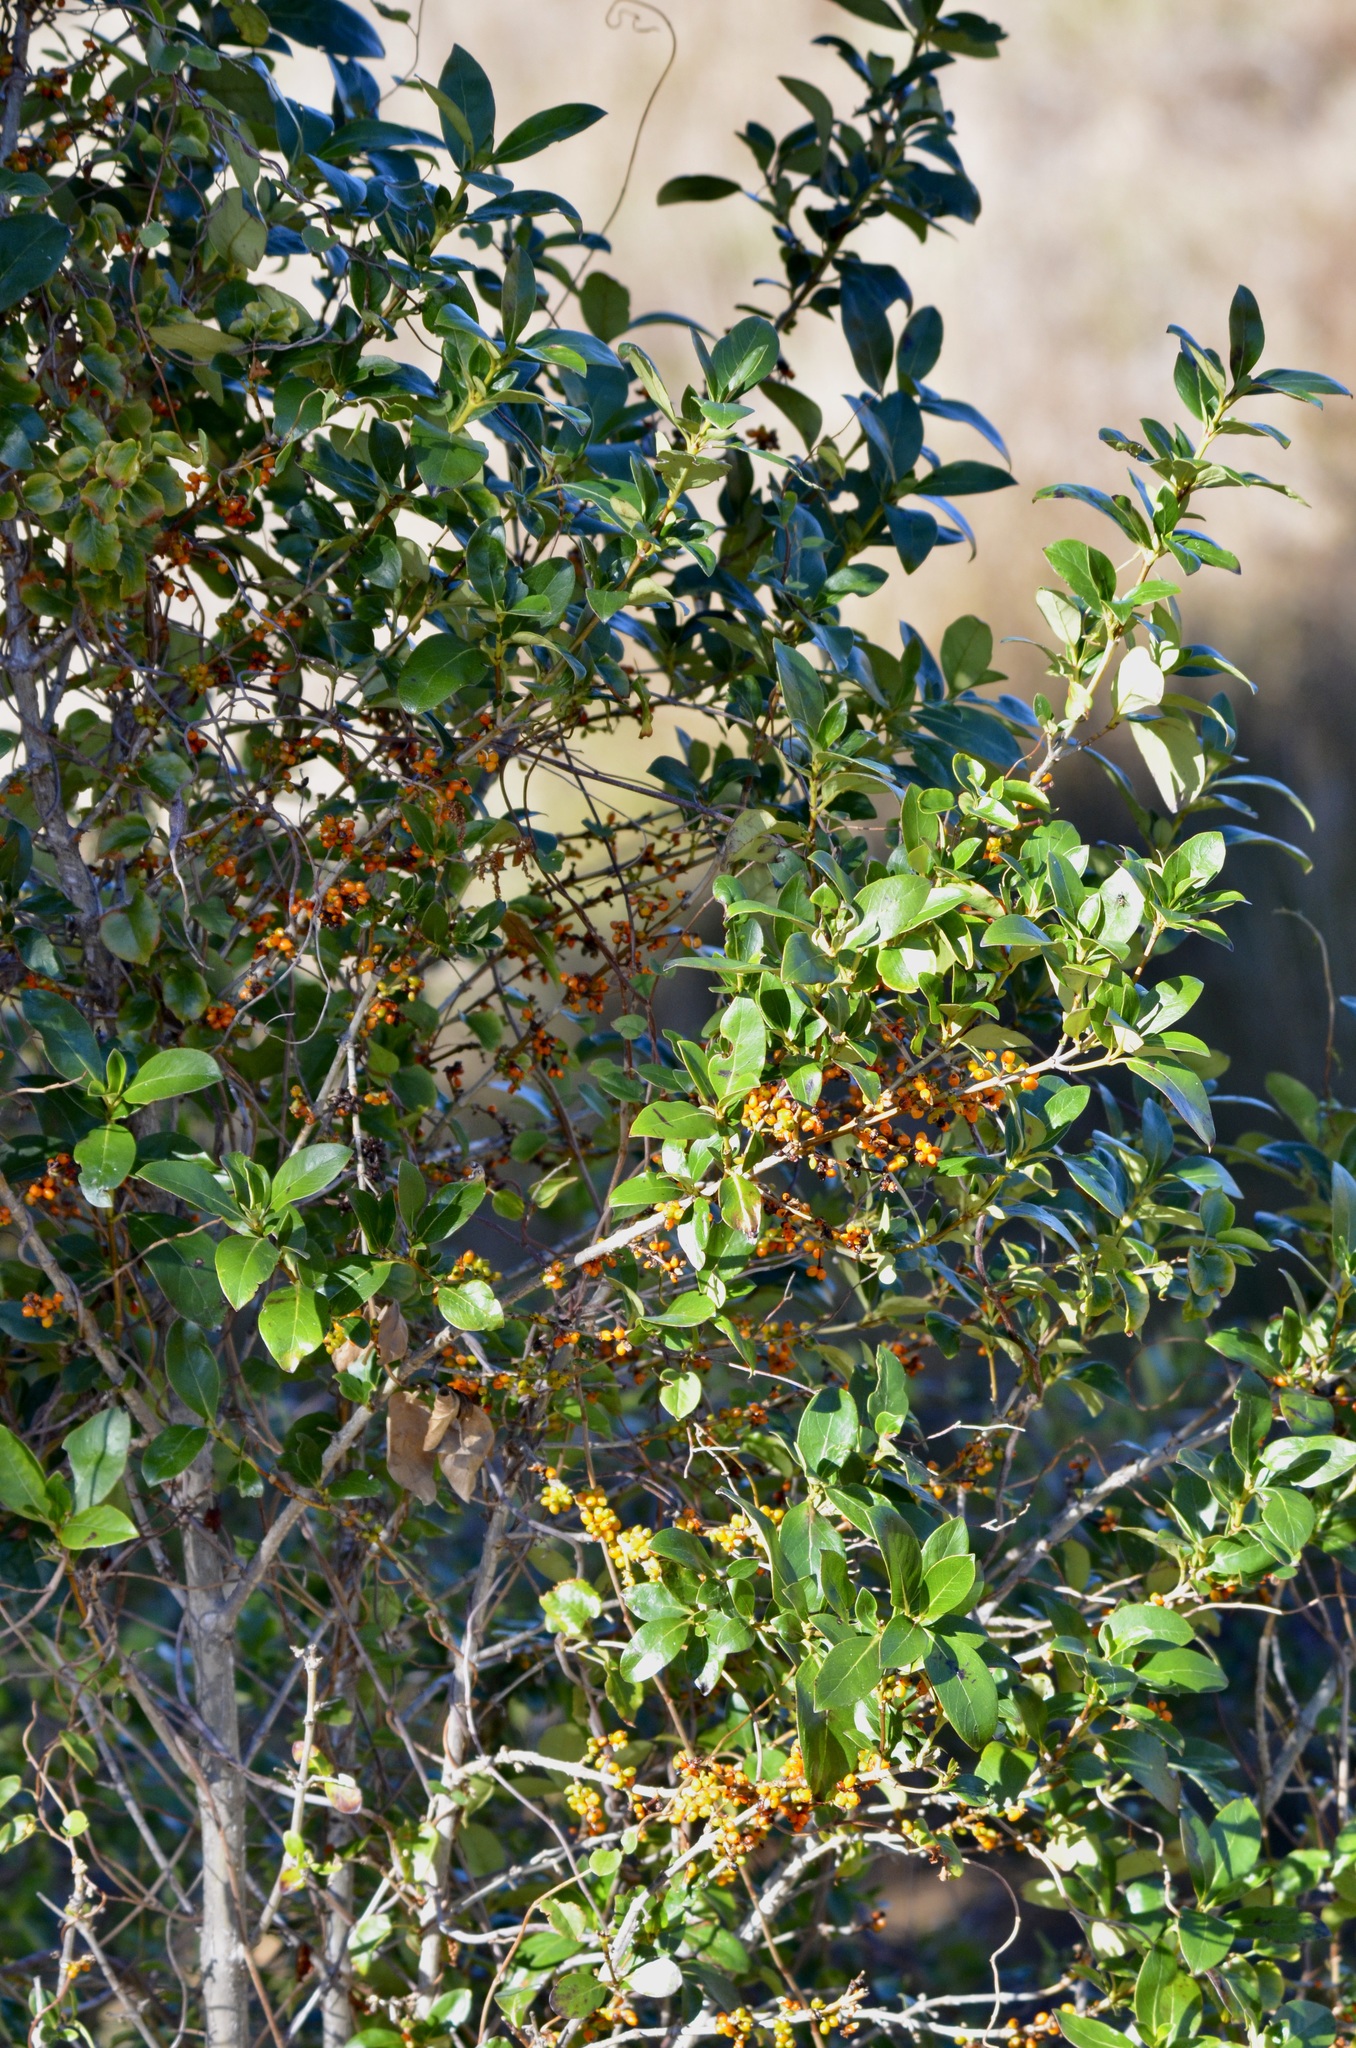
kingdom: Plantae
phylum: Tracheophyta
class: Magnoliopsida
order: Gentianales
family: Rubiaceae
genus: Coprosma
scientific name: Coprosma robusta
